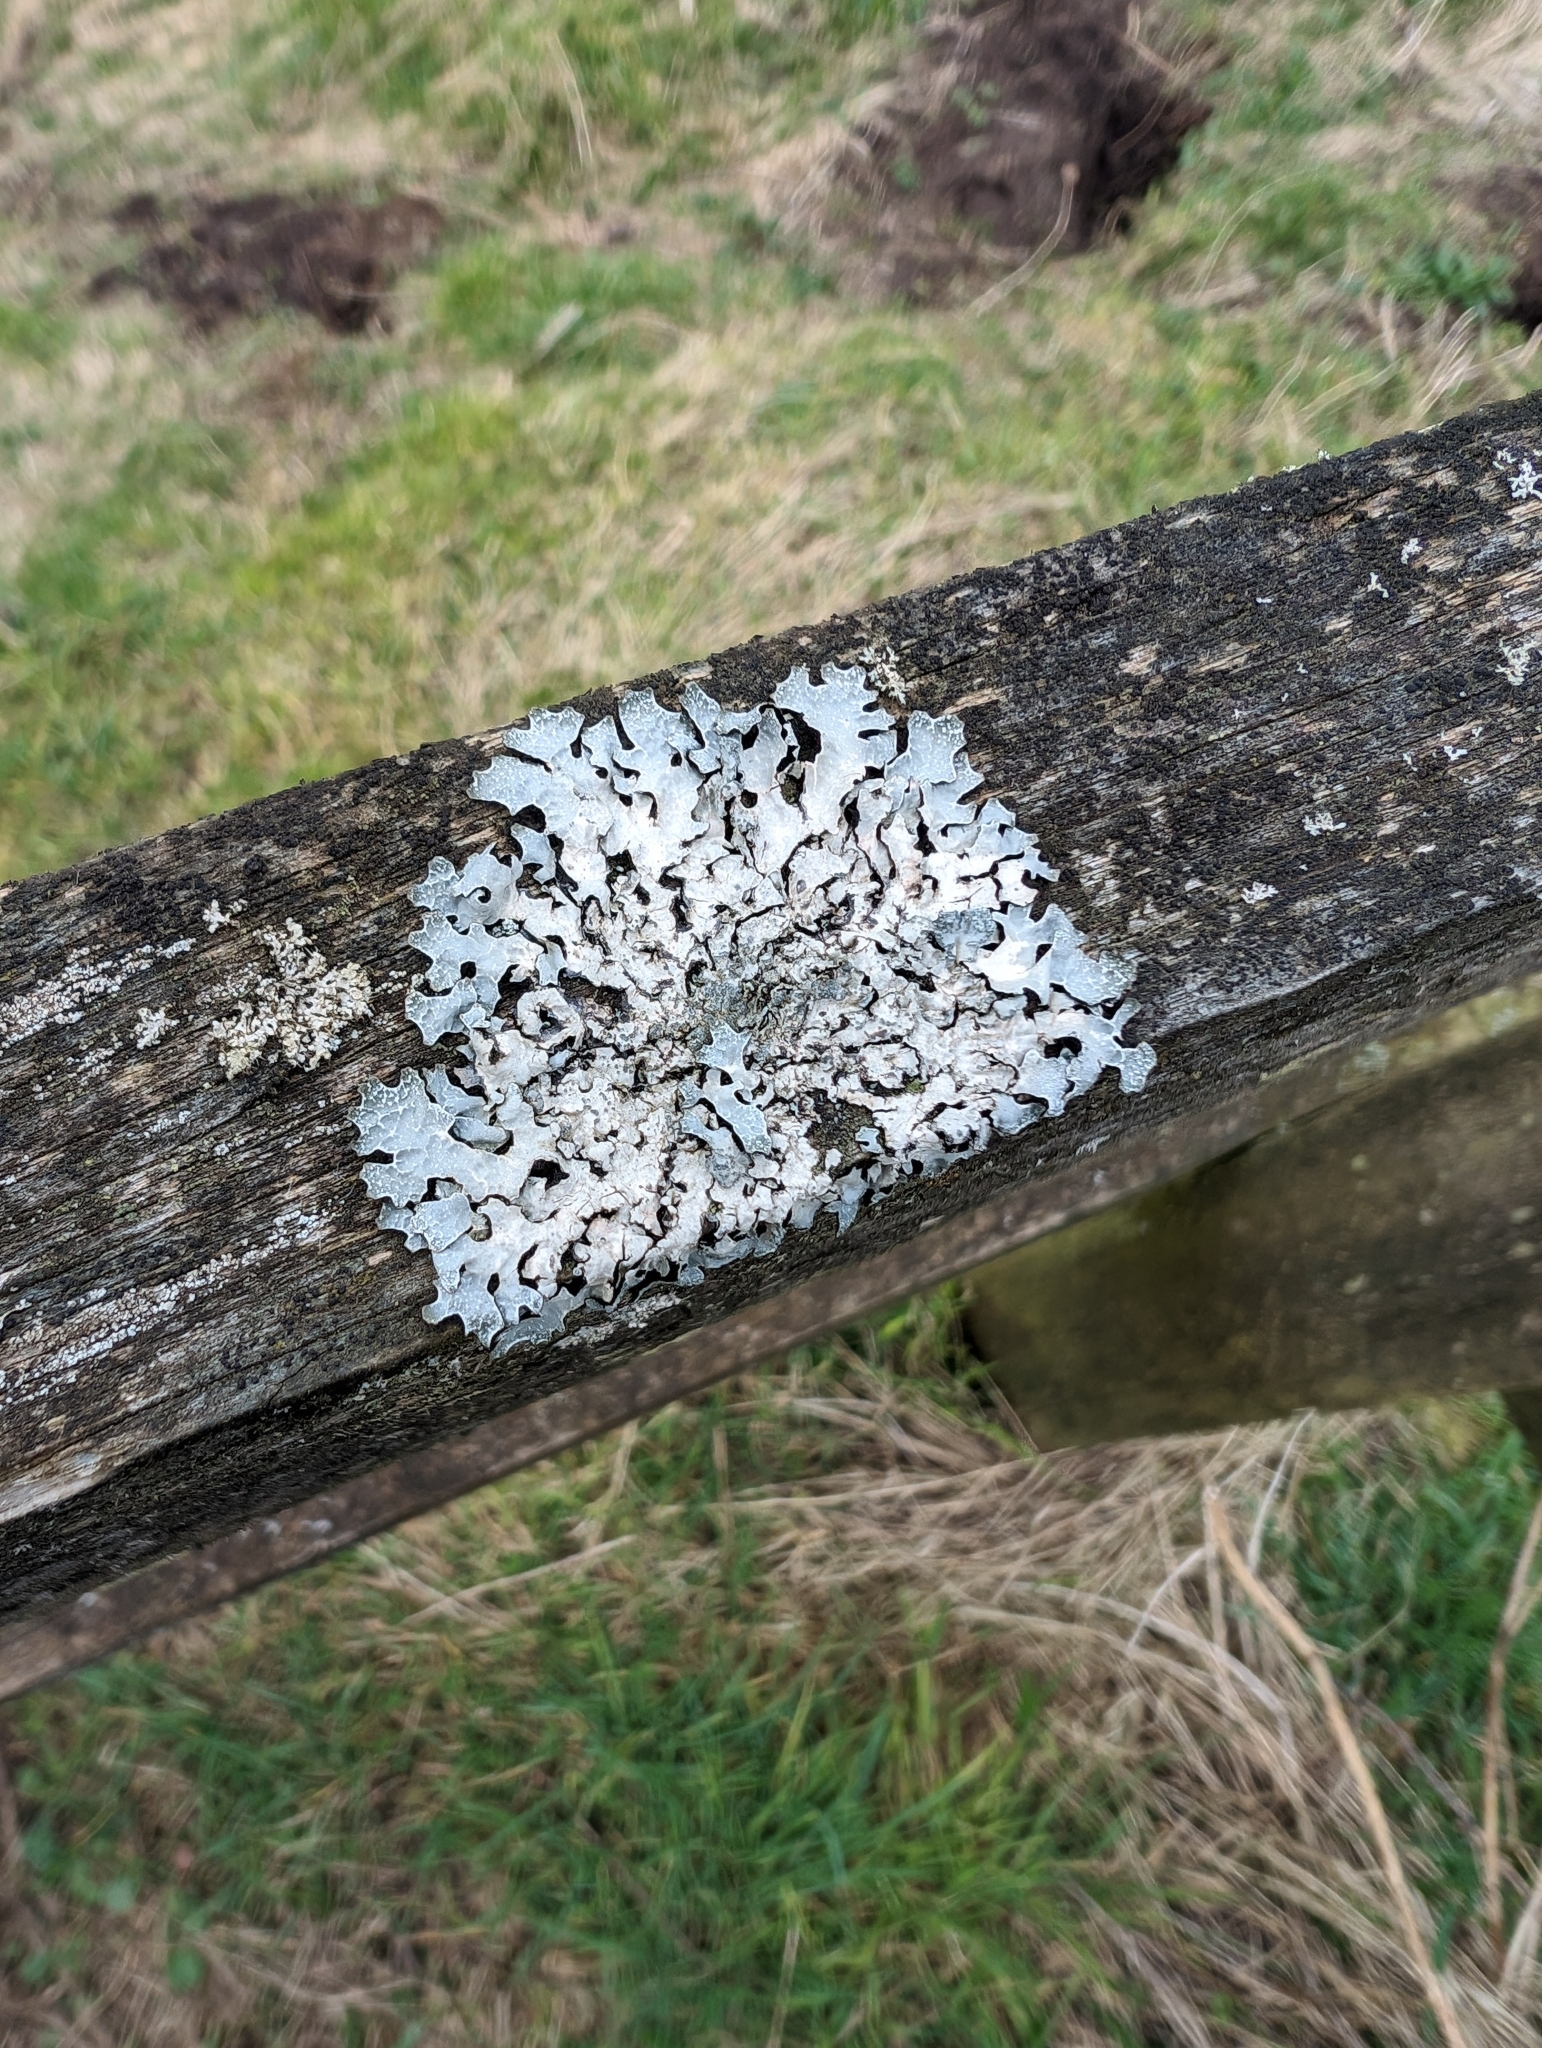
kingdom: Fungi
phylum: Ascomycota
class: Lecanoromycetes
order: Lecanorales
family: Parmeliaceae
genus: Parmelia
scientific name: Parmelia sulcata
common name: Netted shield lichen
